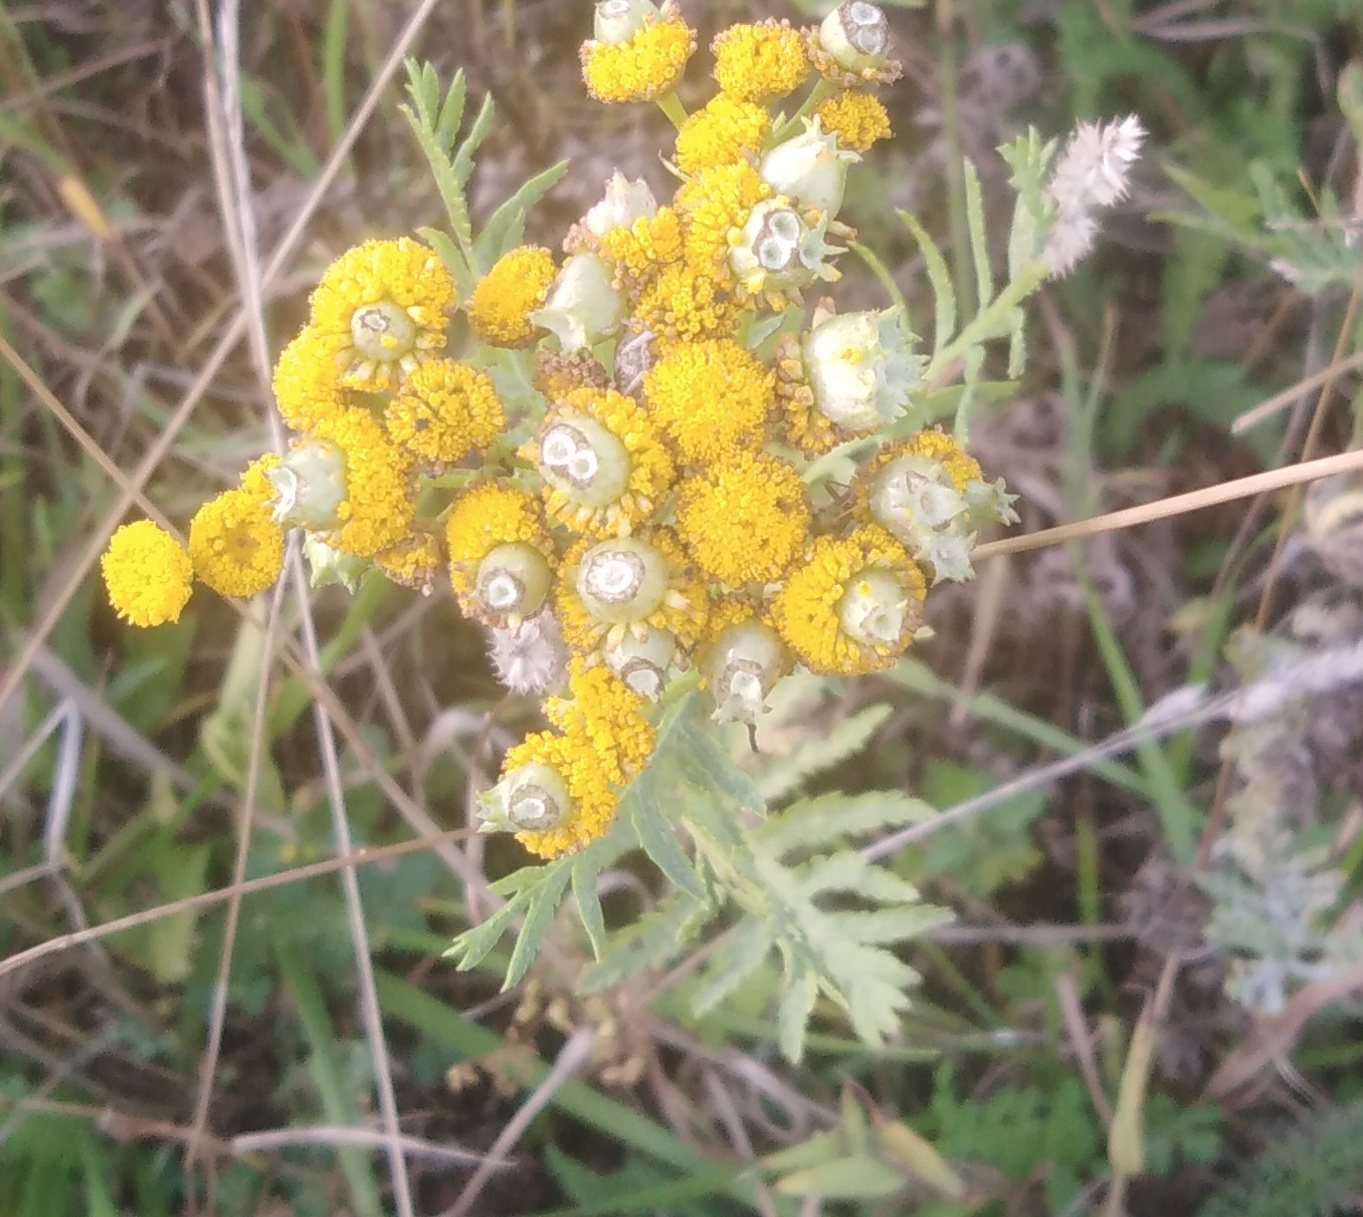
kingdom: Plantae
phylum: Tracheophyta
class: Magnoliopsida
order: Asterales
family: Asteraceae
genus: Tanacetum
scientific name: Tanacetum vulgare
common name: Common tansy
